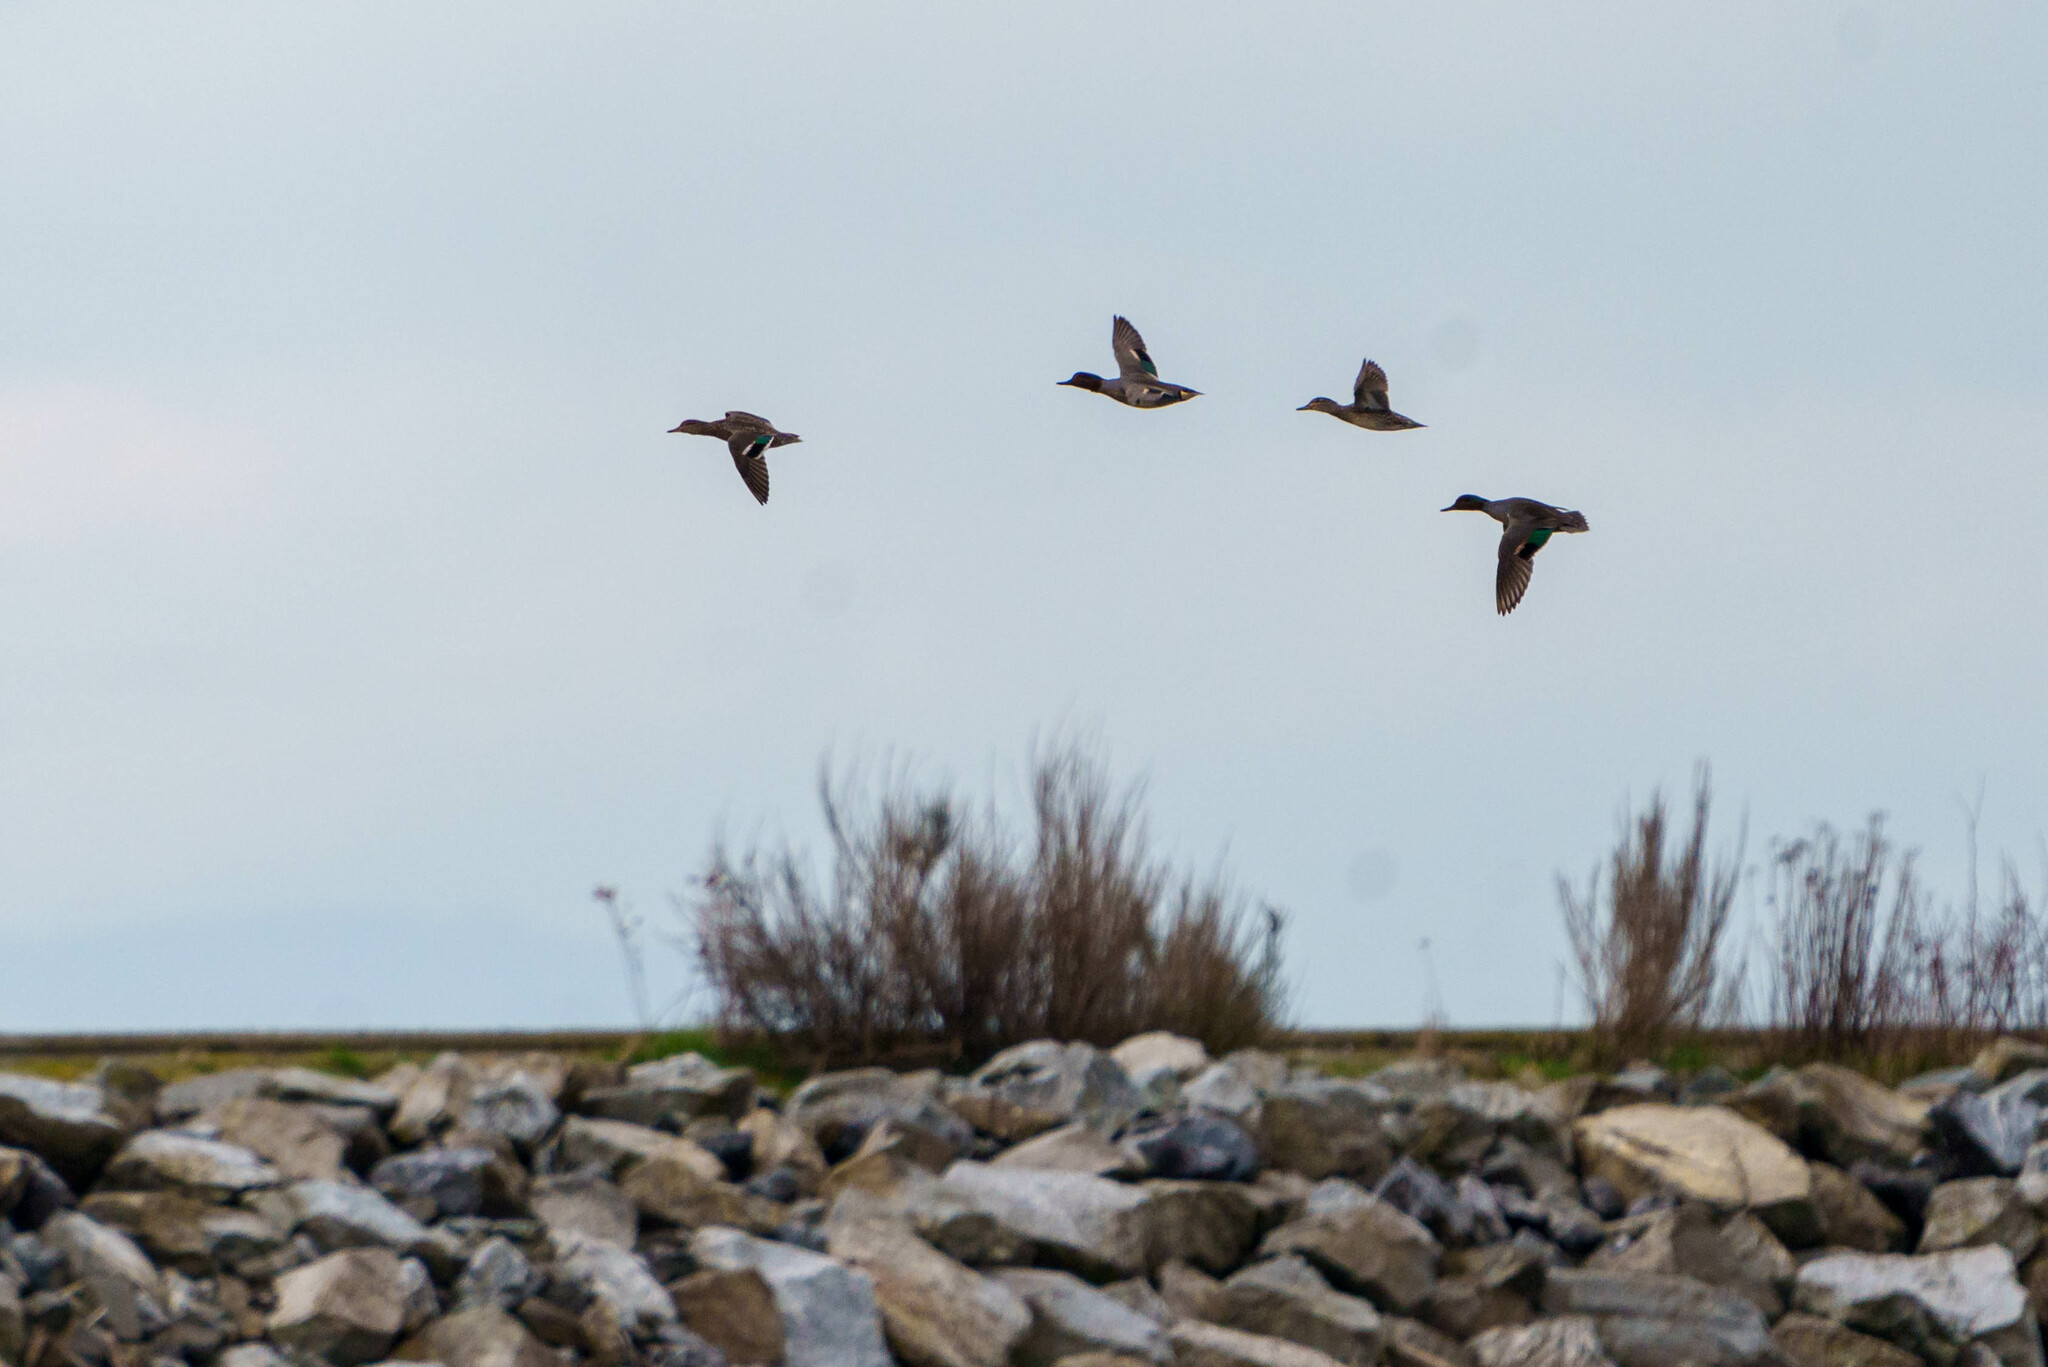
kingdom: Animalia
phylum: Chordata
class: Aves
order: Anseriformes
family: Anatidae
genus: Anas
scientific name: Anas crecca
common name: Eurasian teal
